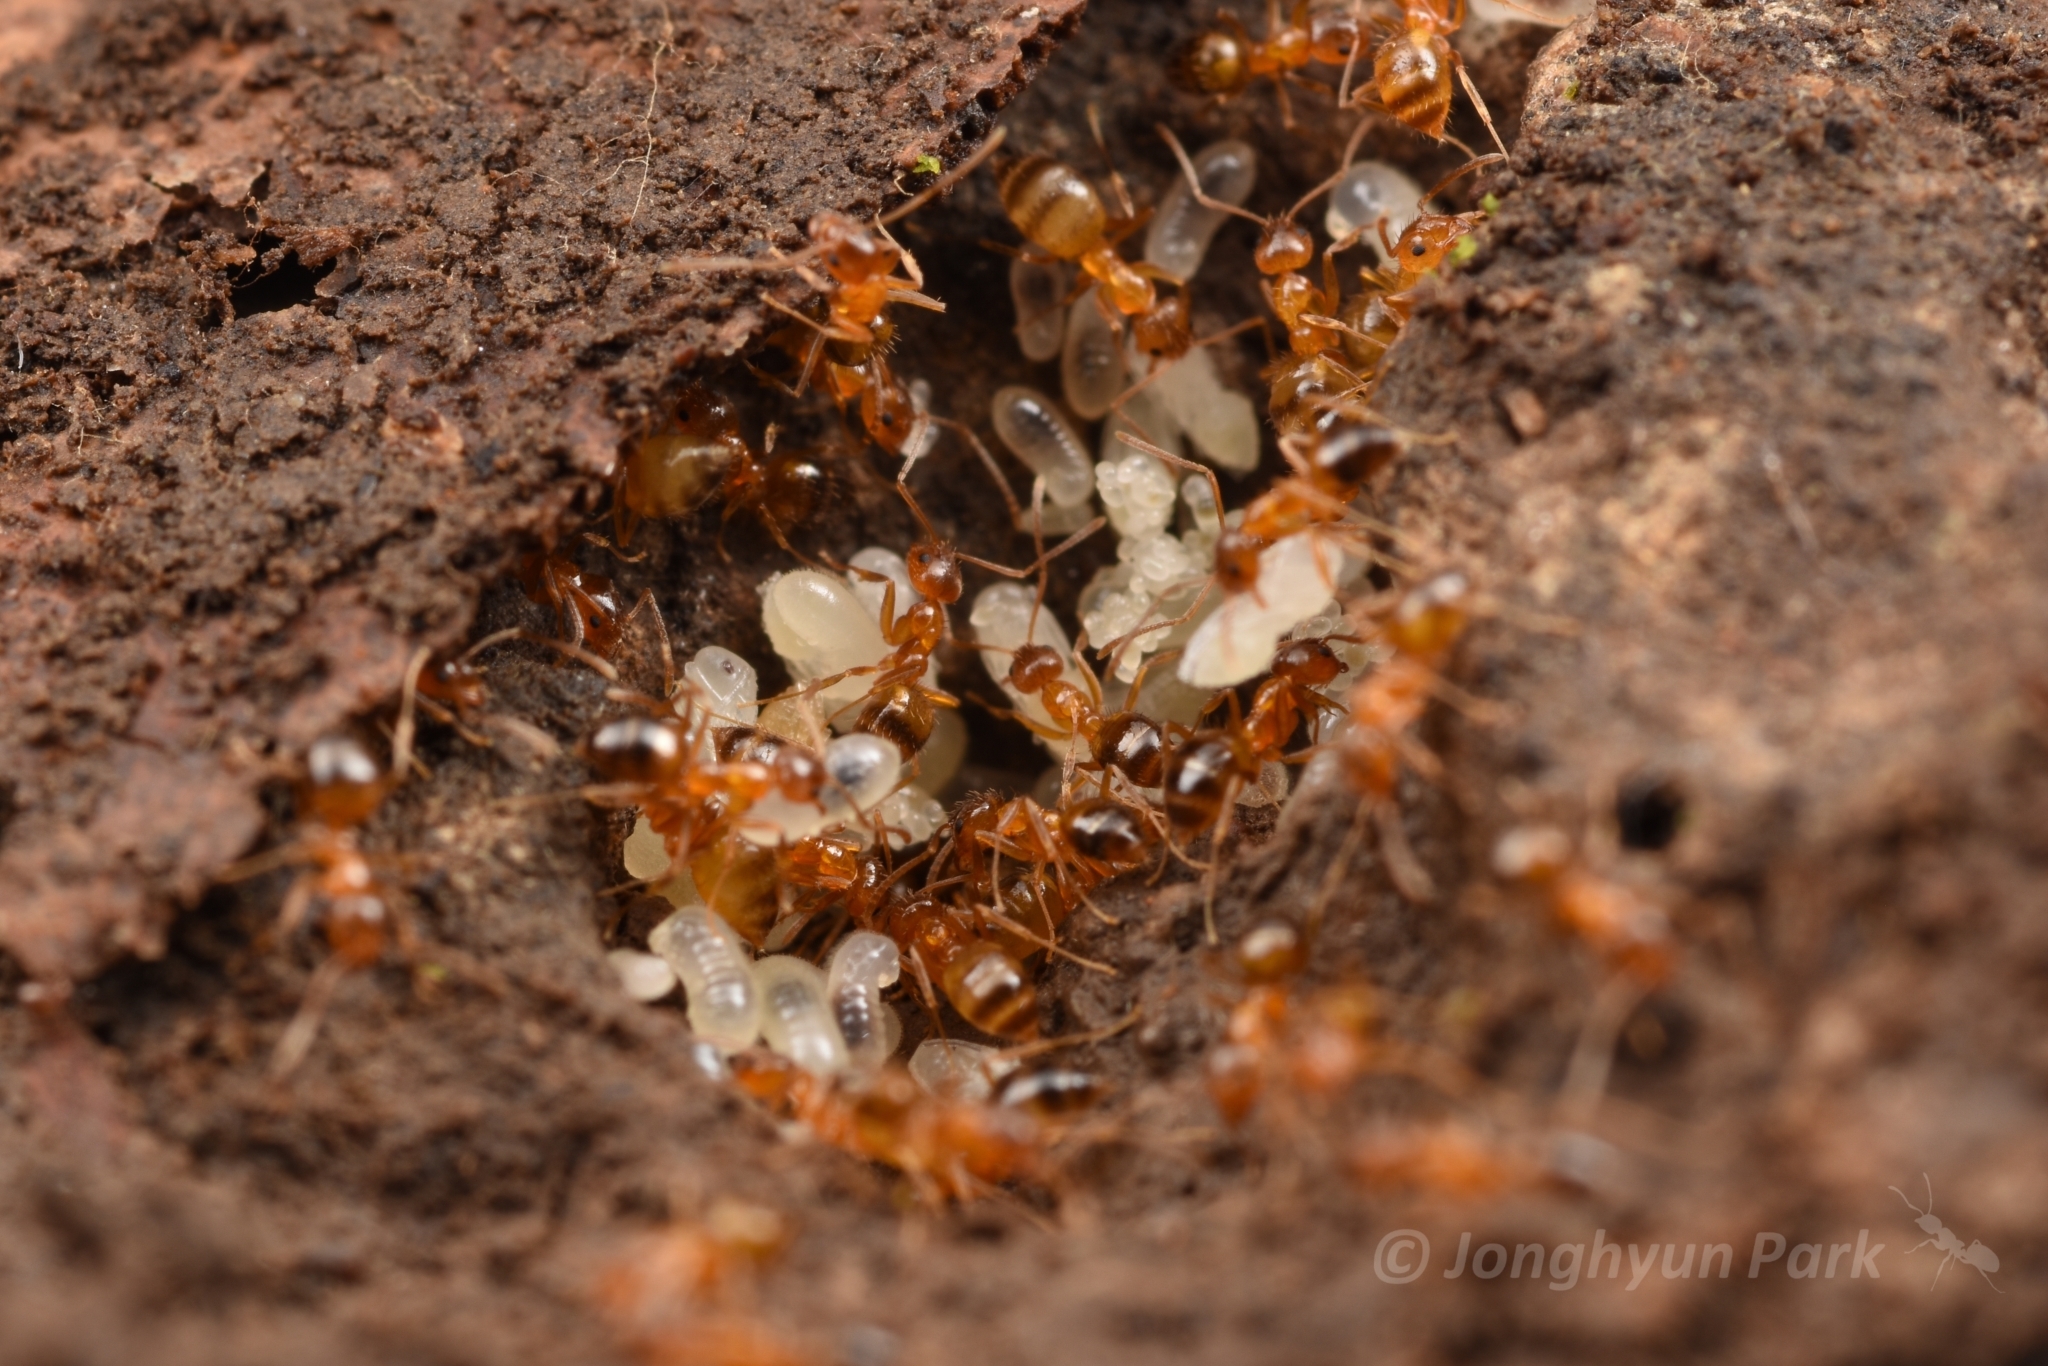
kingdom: Animalia
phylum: Arthropoda
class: Insecta
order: Hymenoptera
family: Formicidae
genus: Paratrechina
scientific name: Paratrechina flavipes
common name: Eastern asian formicine ant
